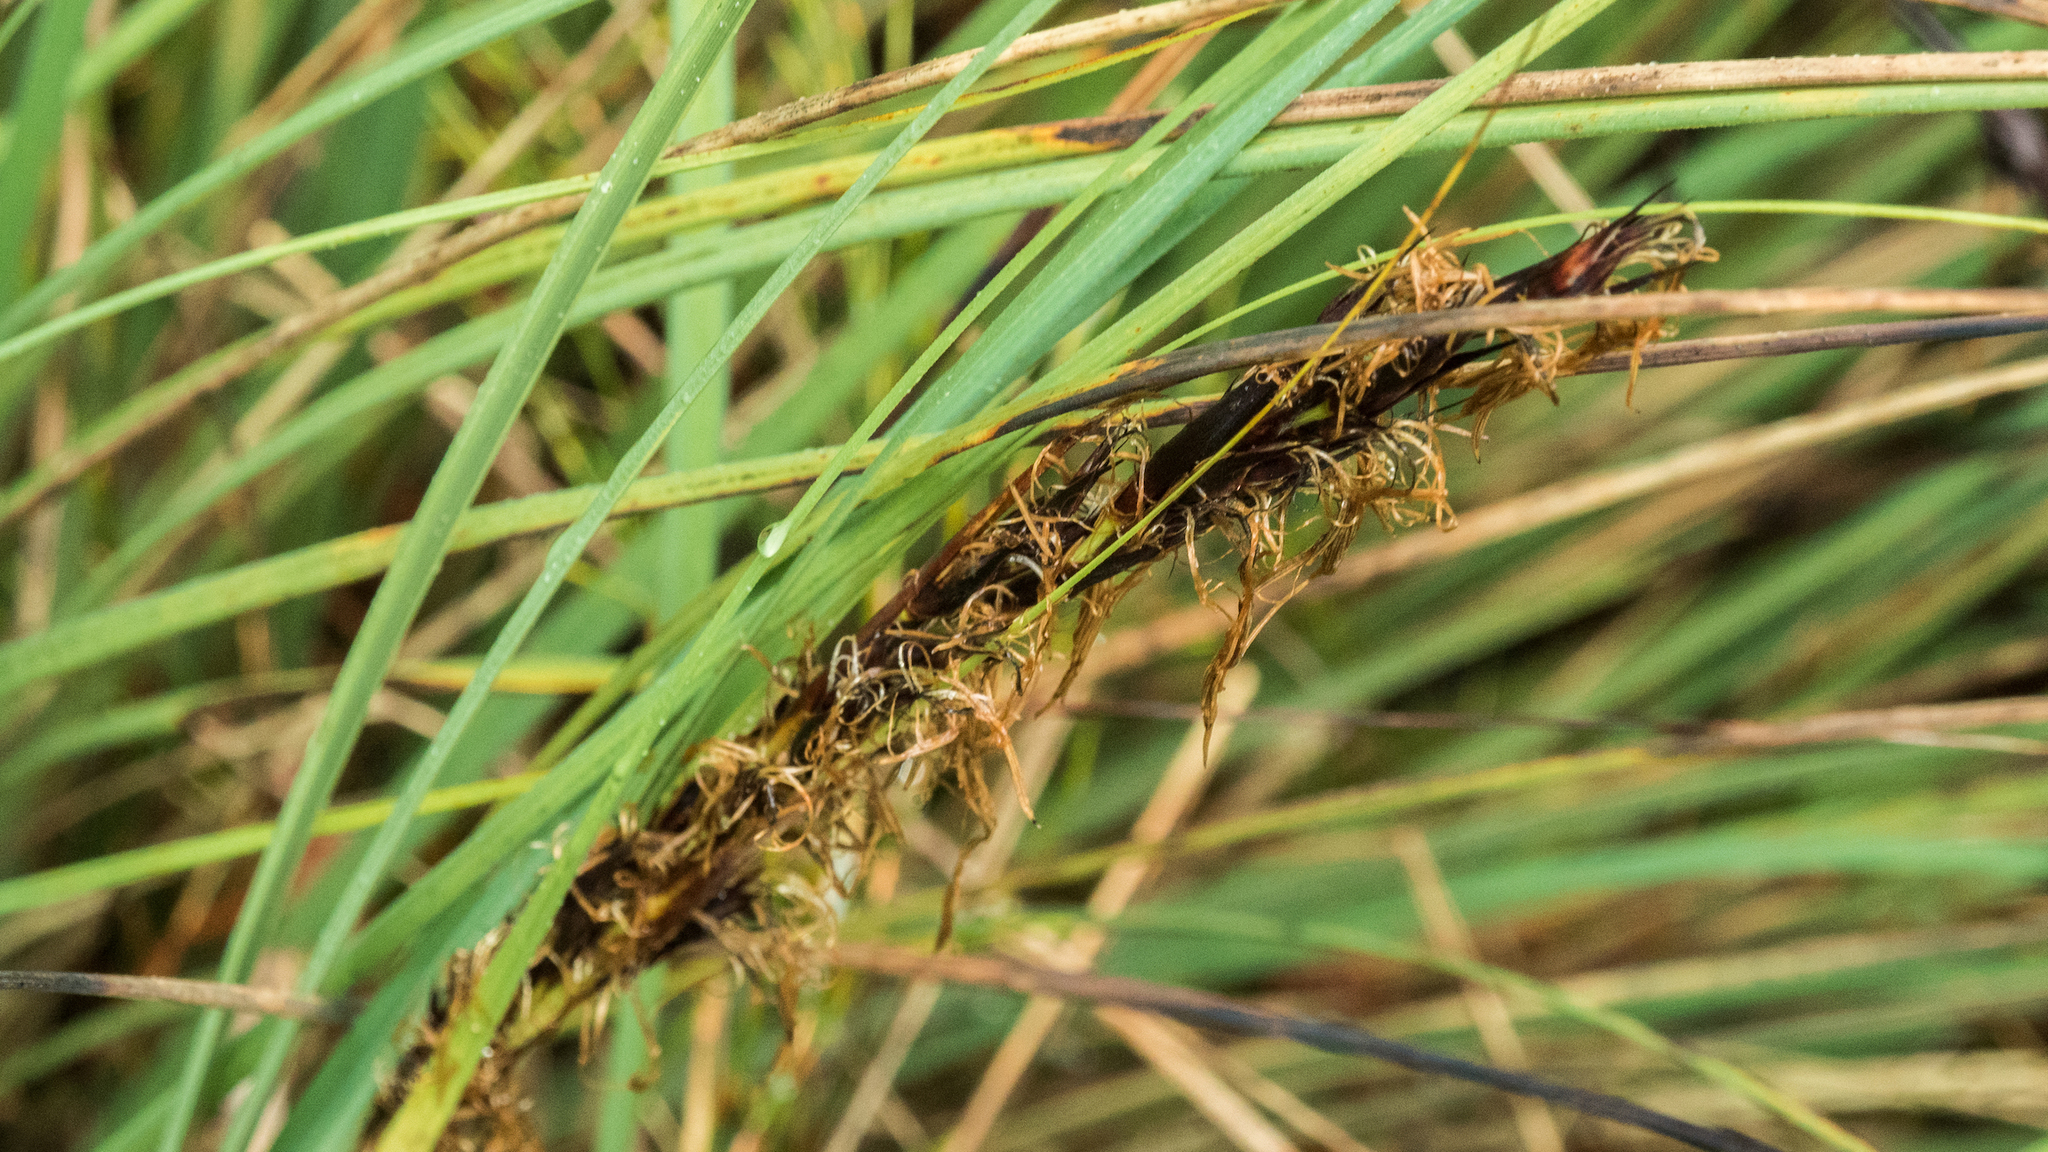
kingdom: Plantae
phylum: Tracheophyta
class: Liliopsida
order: Poales
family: Cyperaceae
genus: Gahnia
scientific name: Gahnia procera
